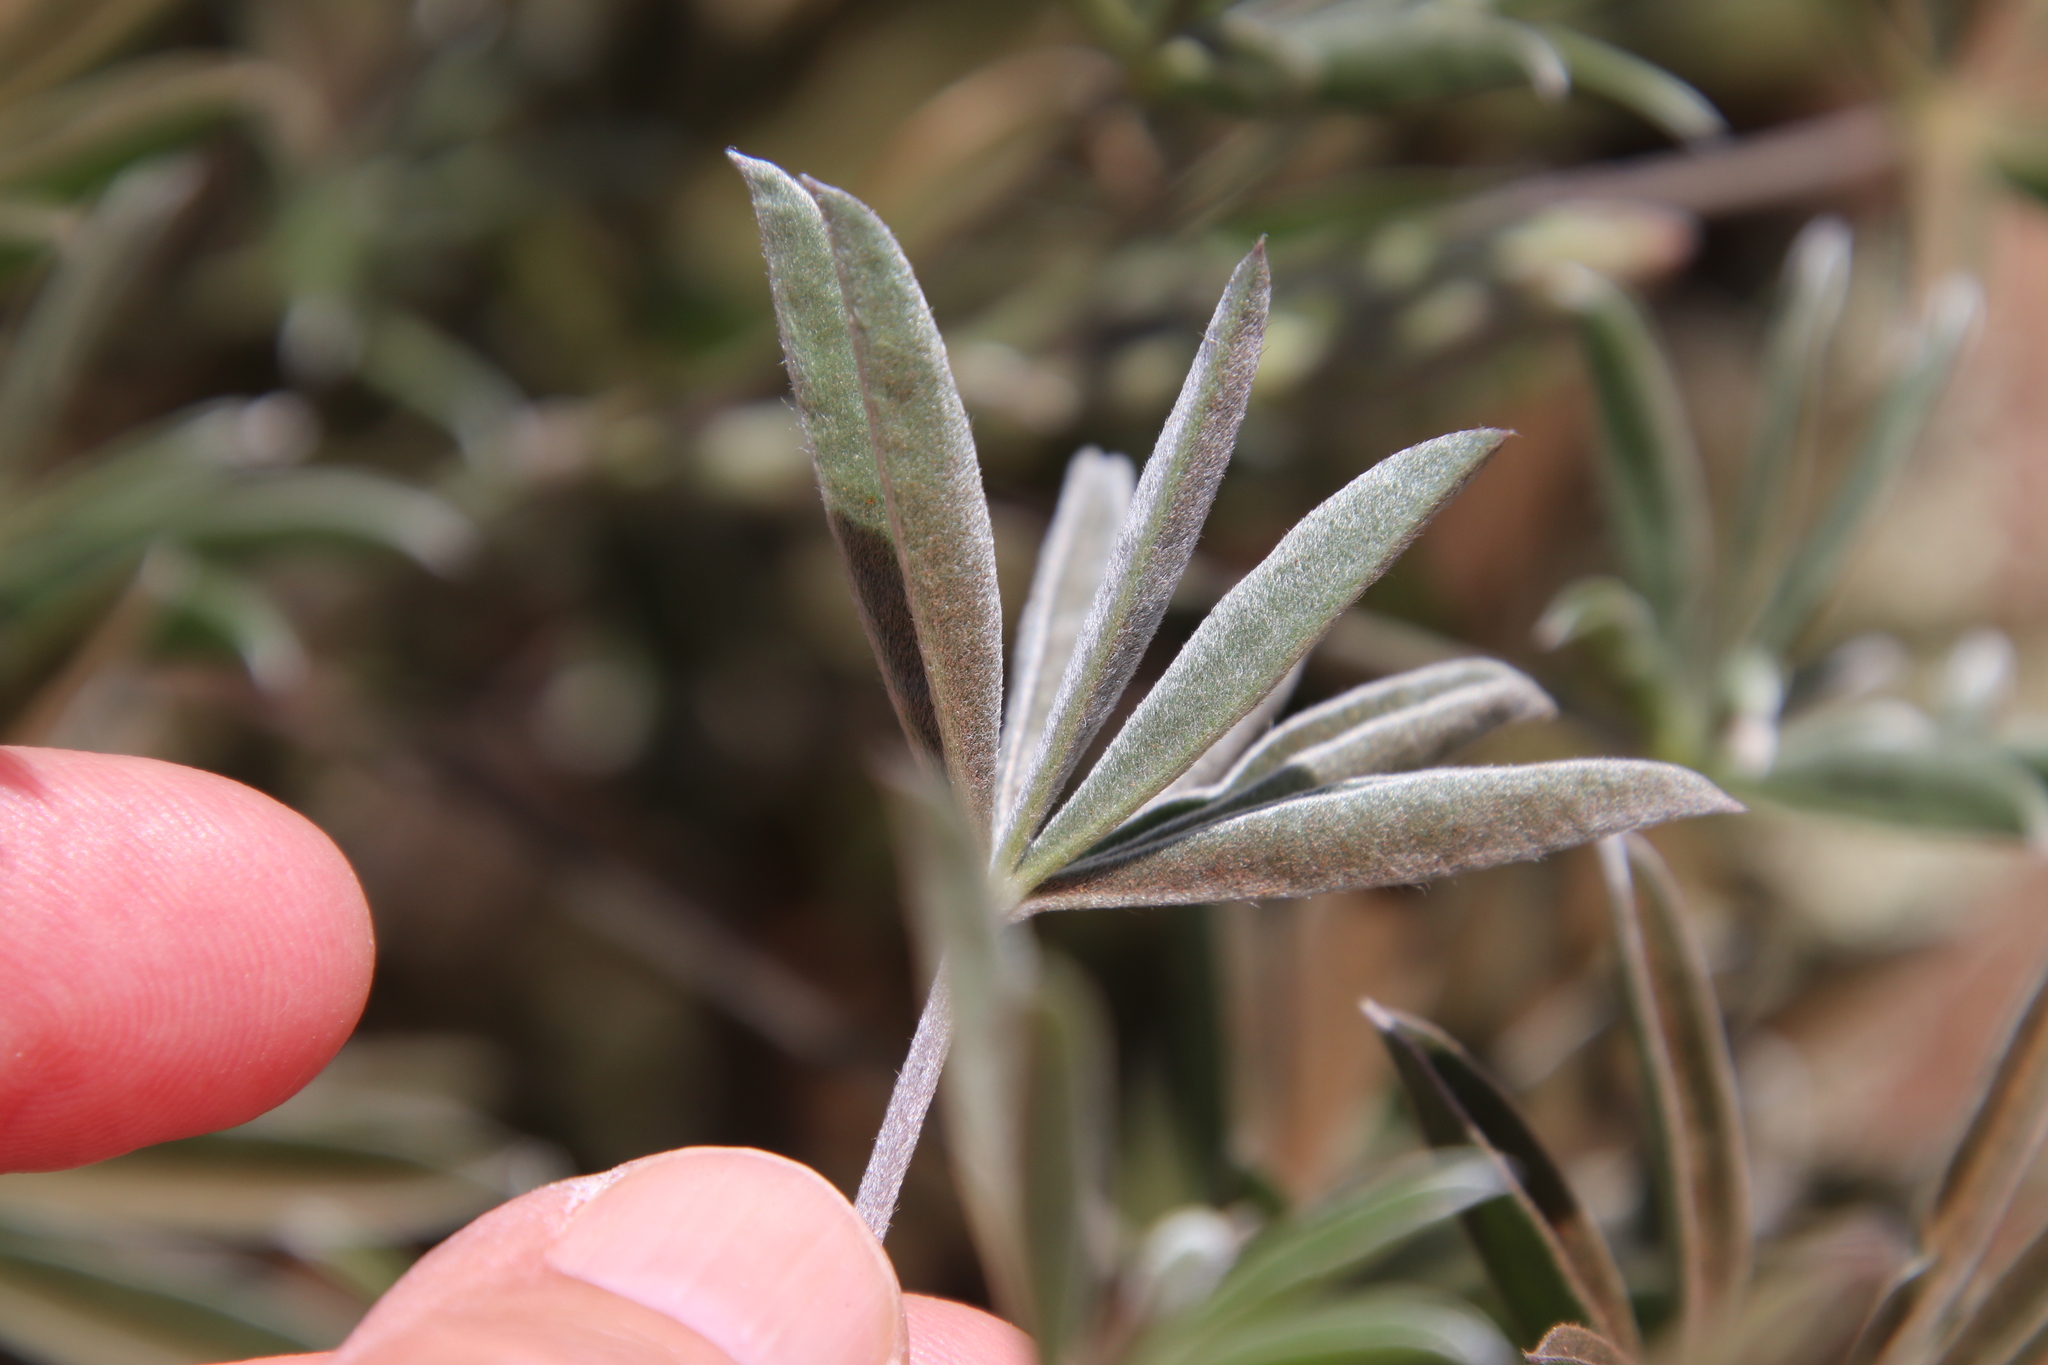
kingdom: Plantae
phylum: Tracheophyta
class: Magnoliopsida
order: Fabales
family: Fabaceae
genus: Lupinus
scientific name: Lupinus excubitus
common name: Grape soda lupine
